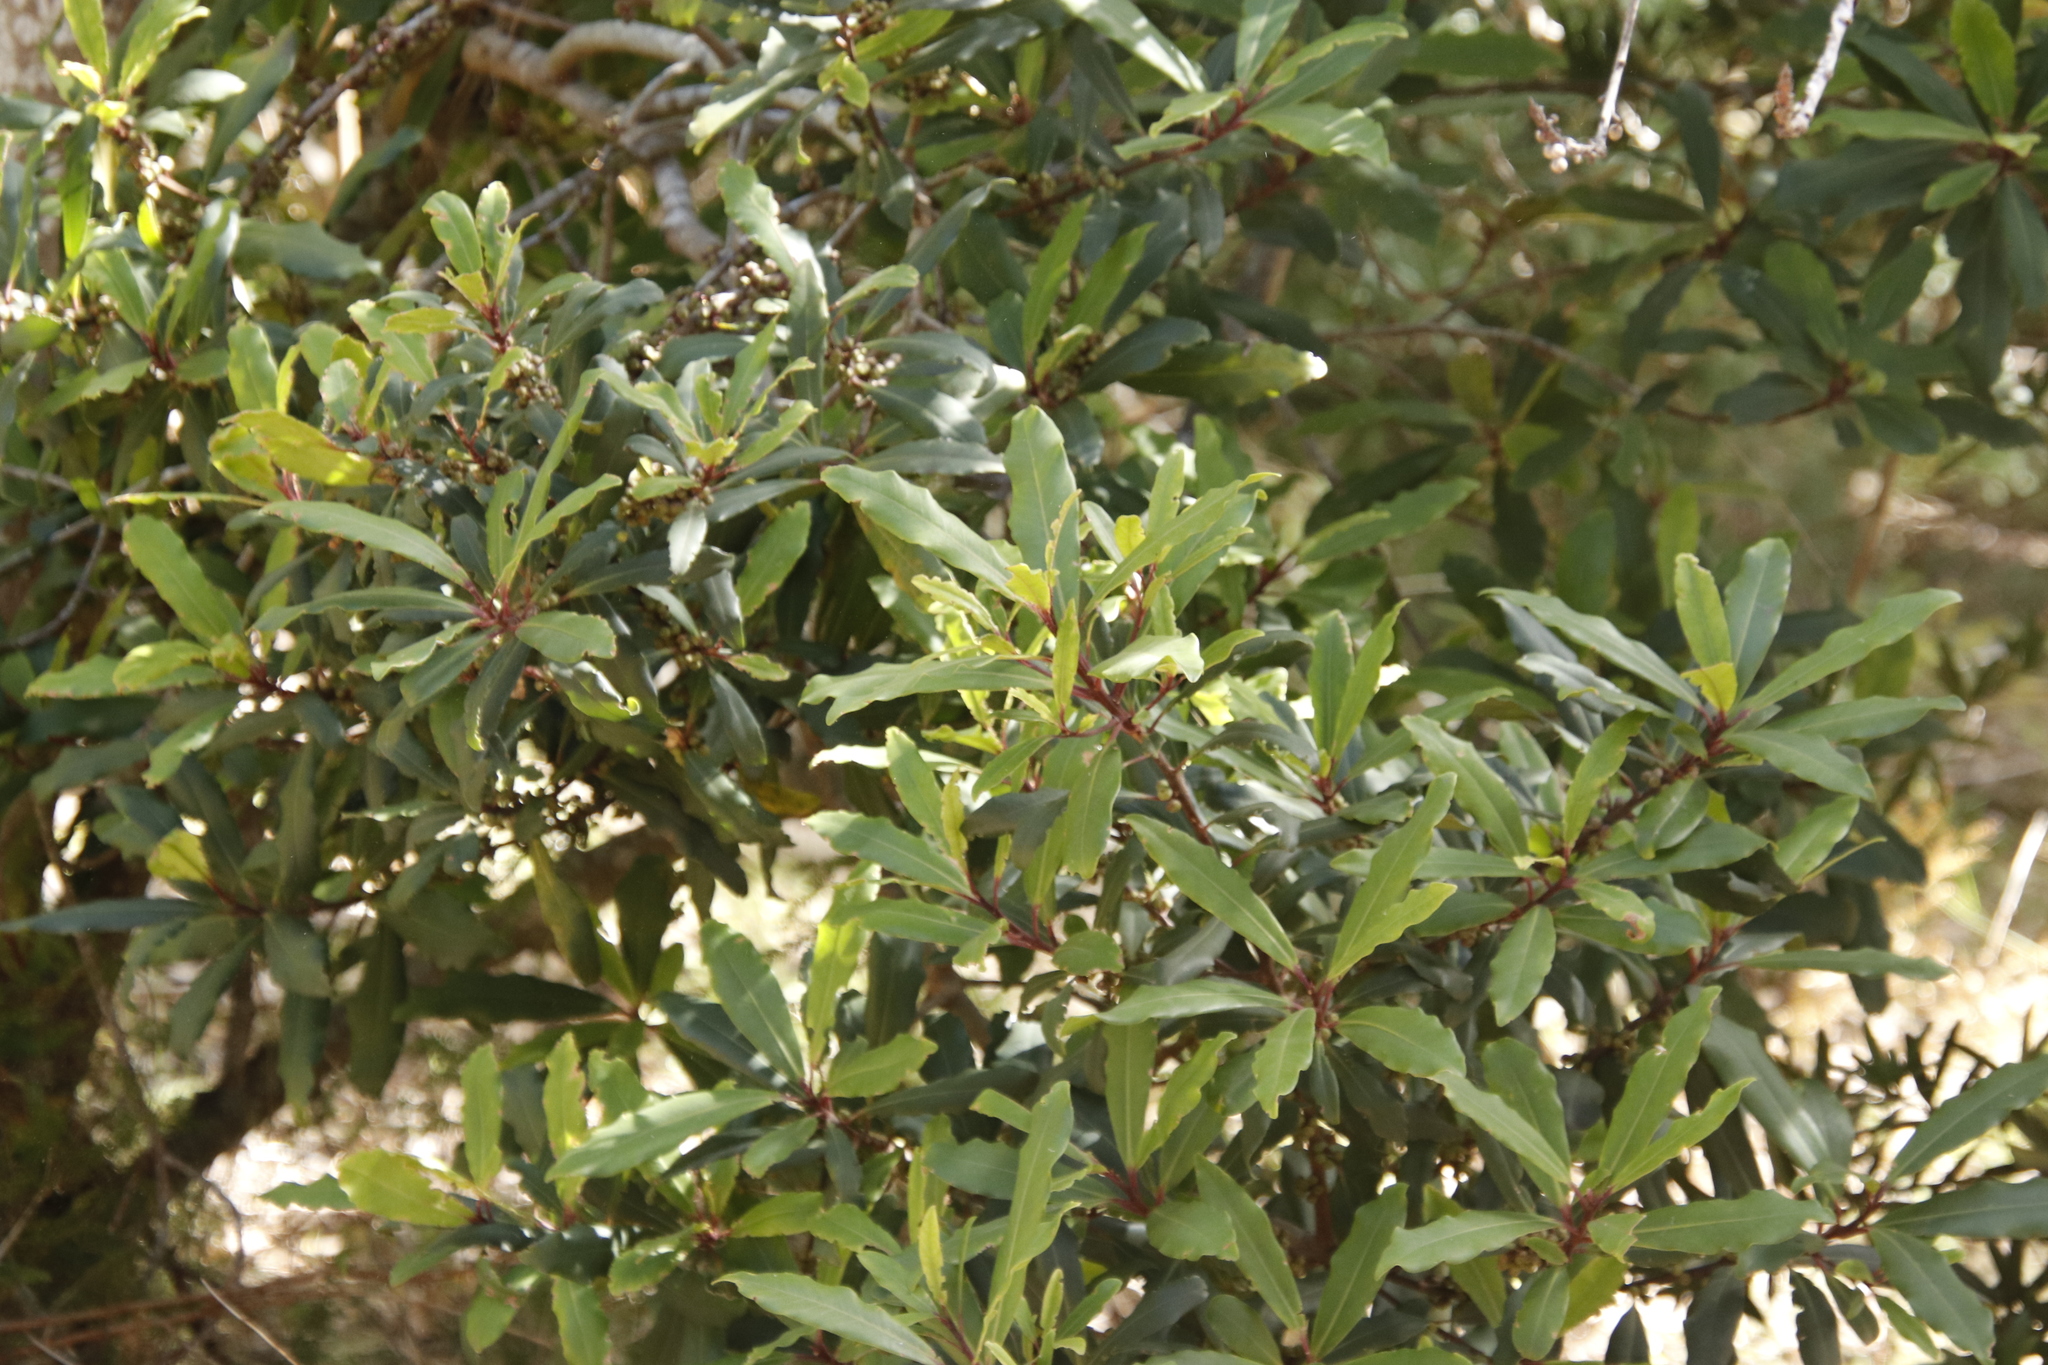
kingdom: Plantae
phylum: Tracheophyta
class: Magnoliopsida
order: Ericales
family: Primulaceae
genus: Myrsine
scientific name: Myrsine melanophloeos
